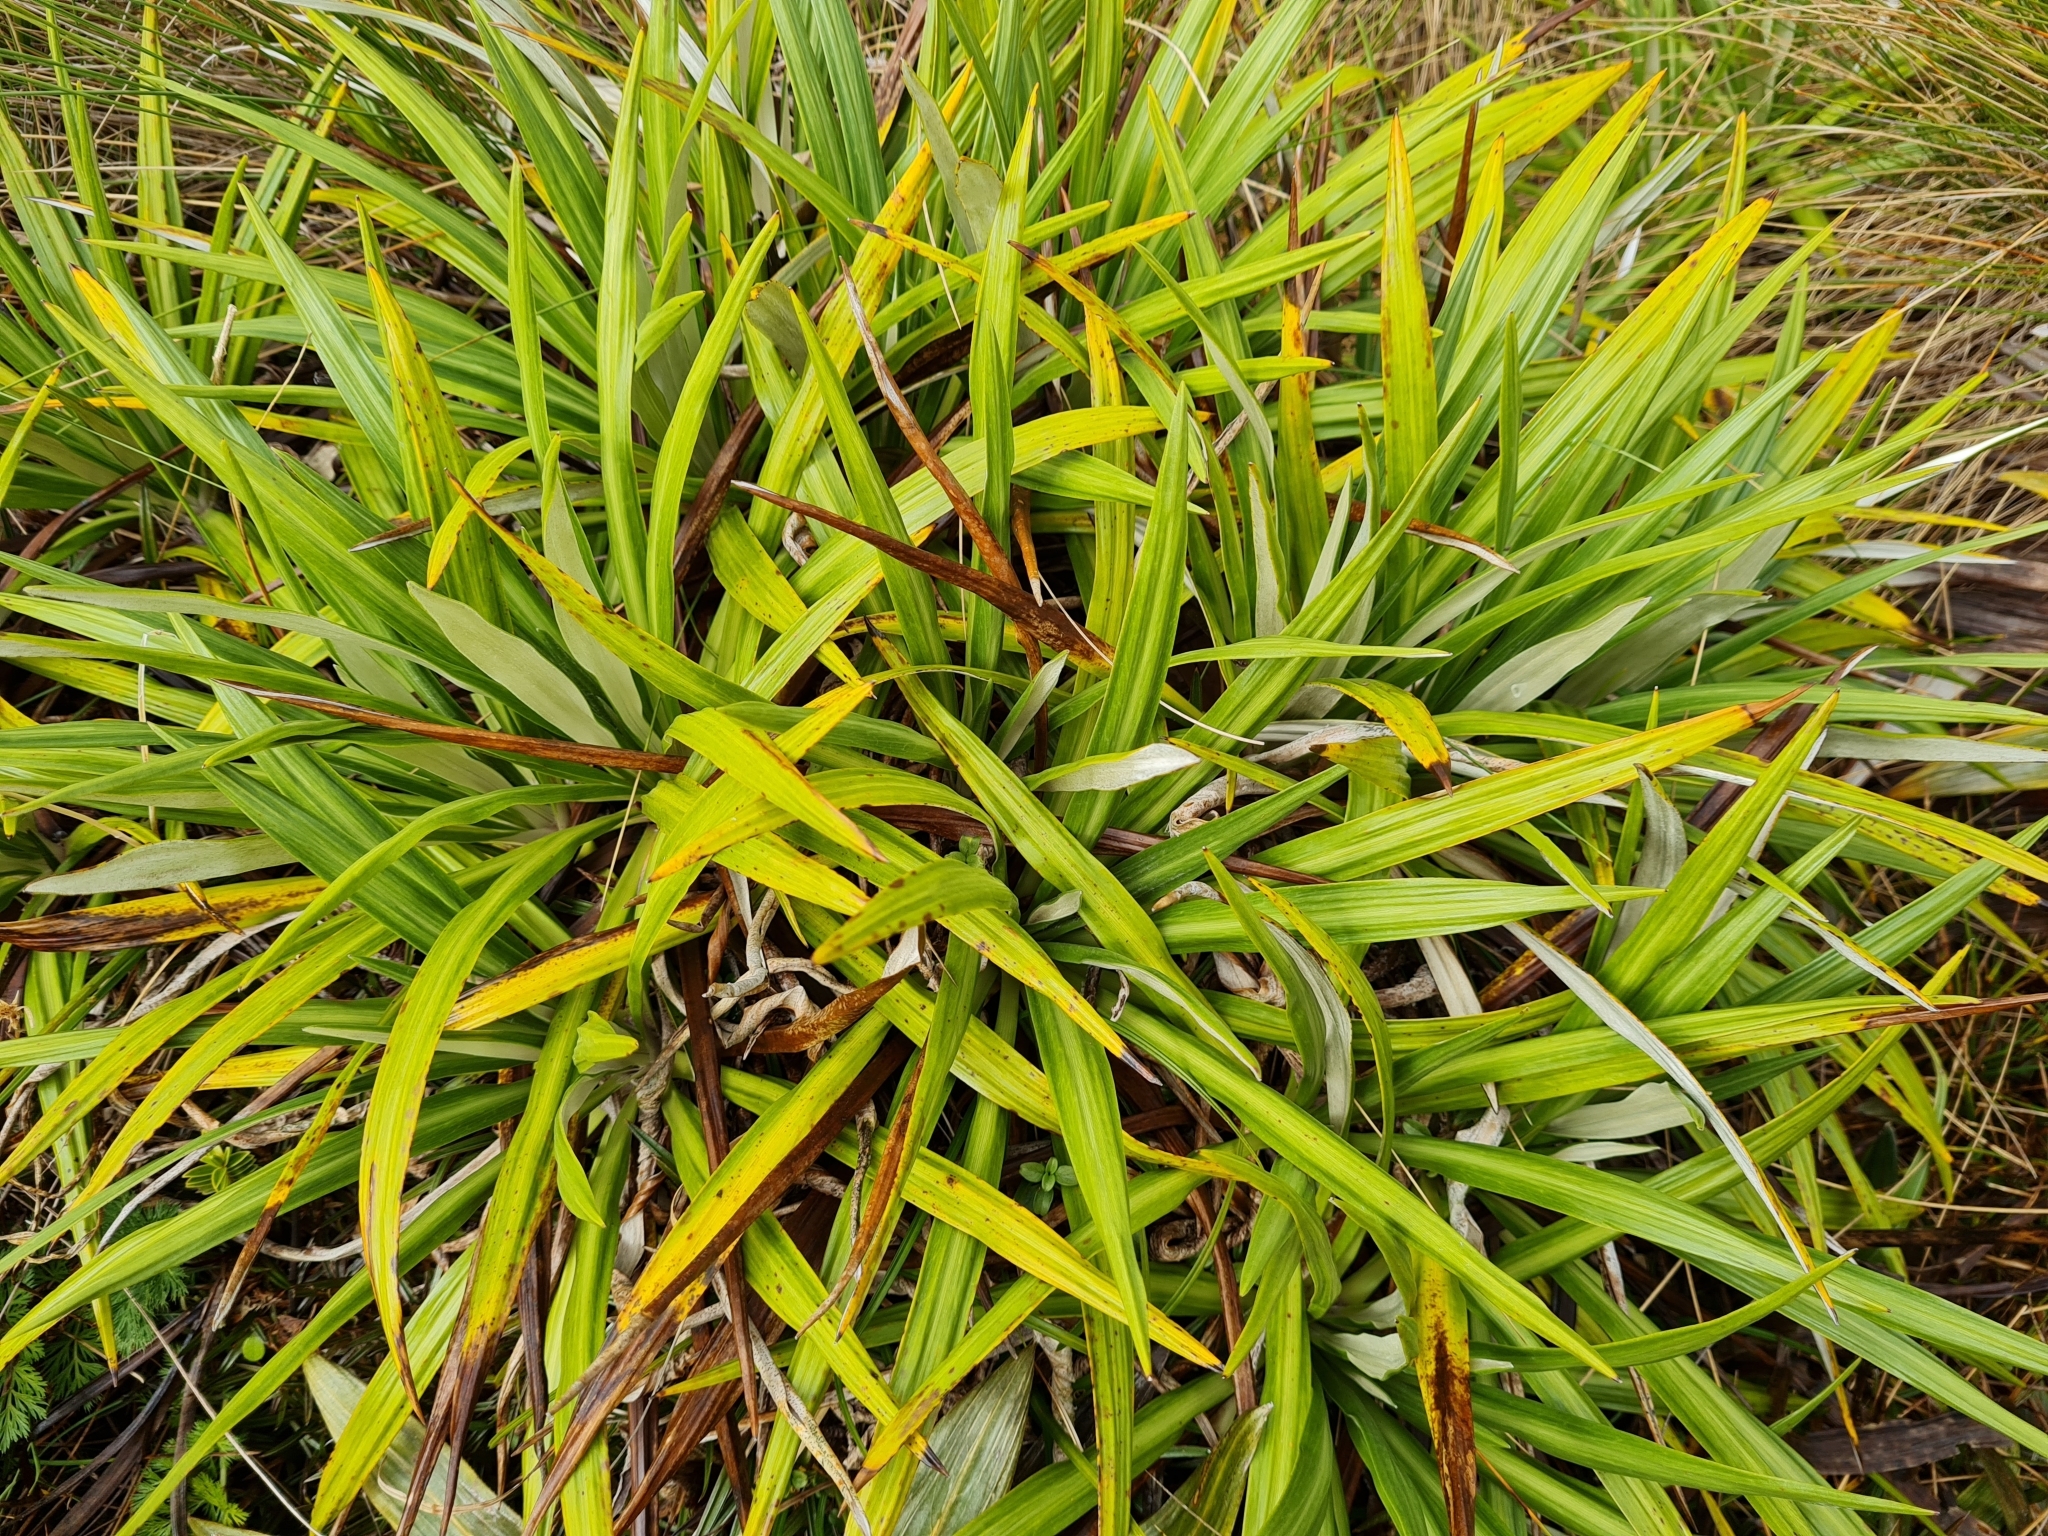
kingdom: Plantae
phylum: Tracheophyta
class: Magnoliopsida
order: Asterales
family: Asteraceae
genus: Celmisia
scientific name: Celmisia petriei
